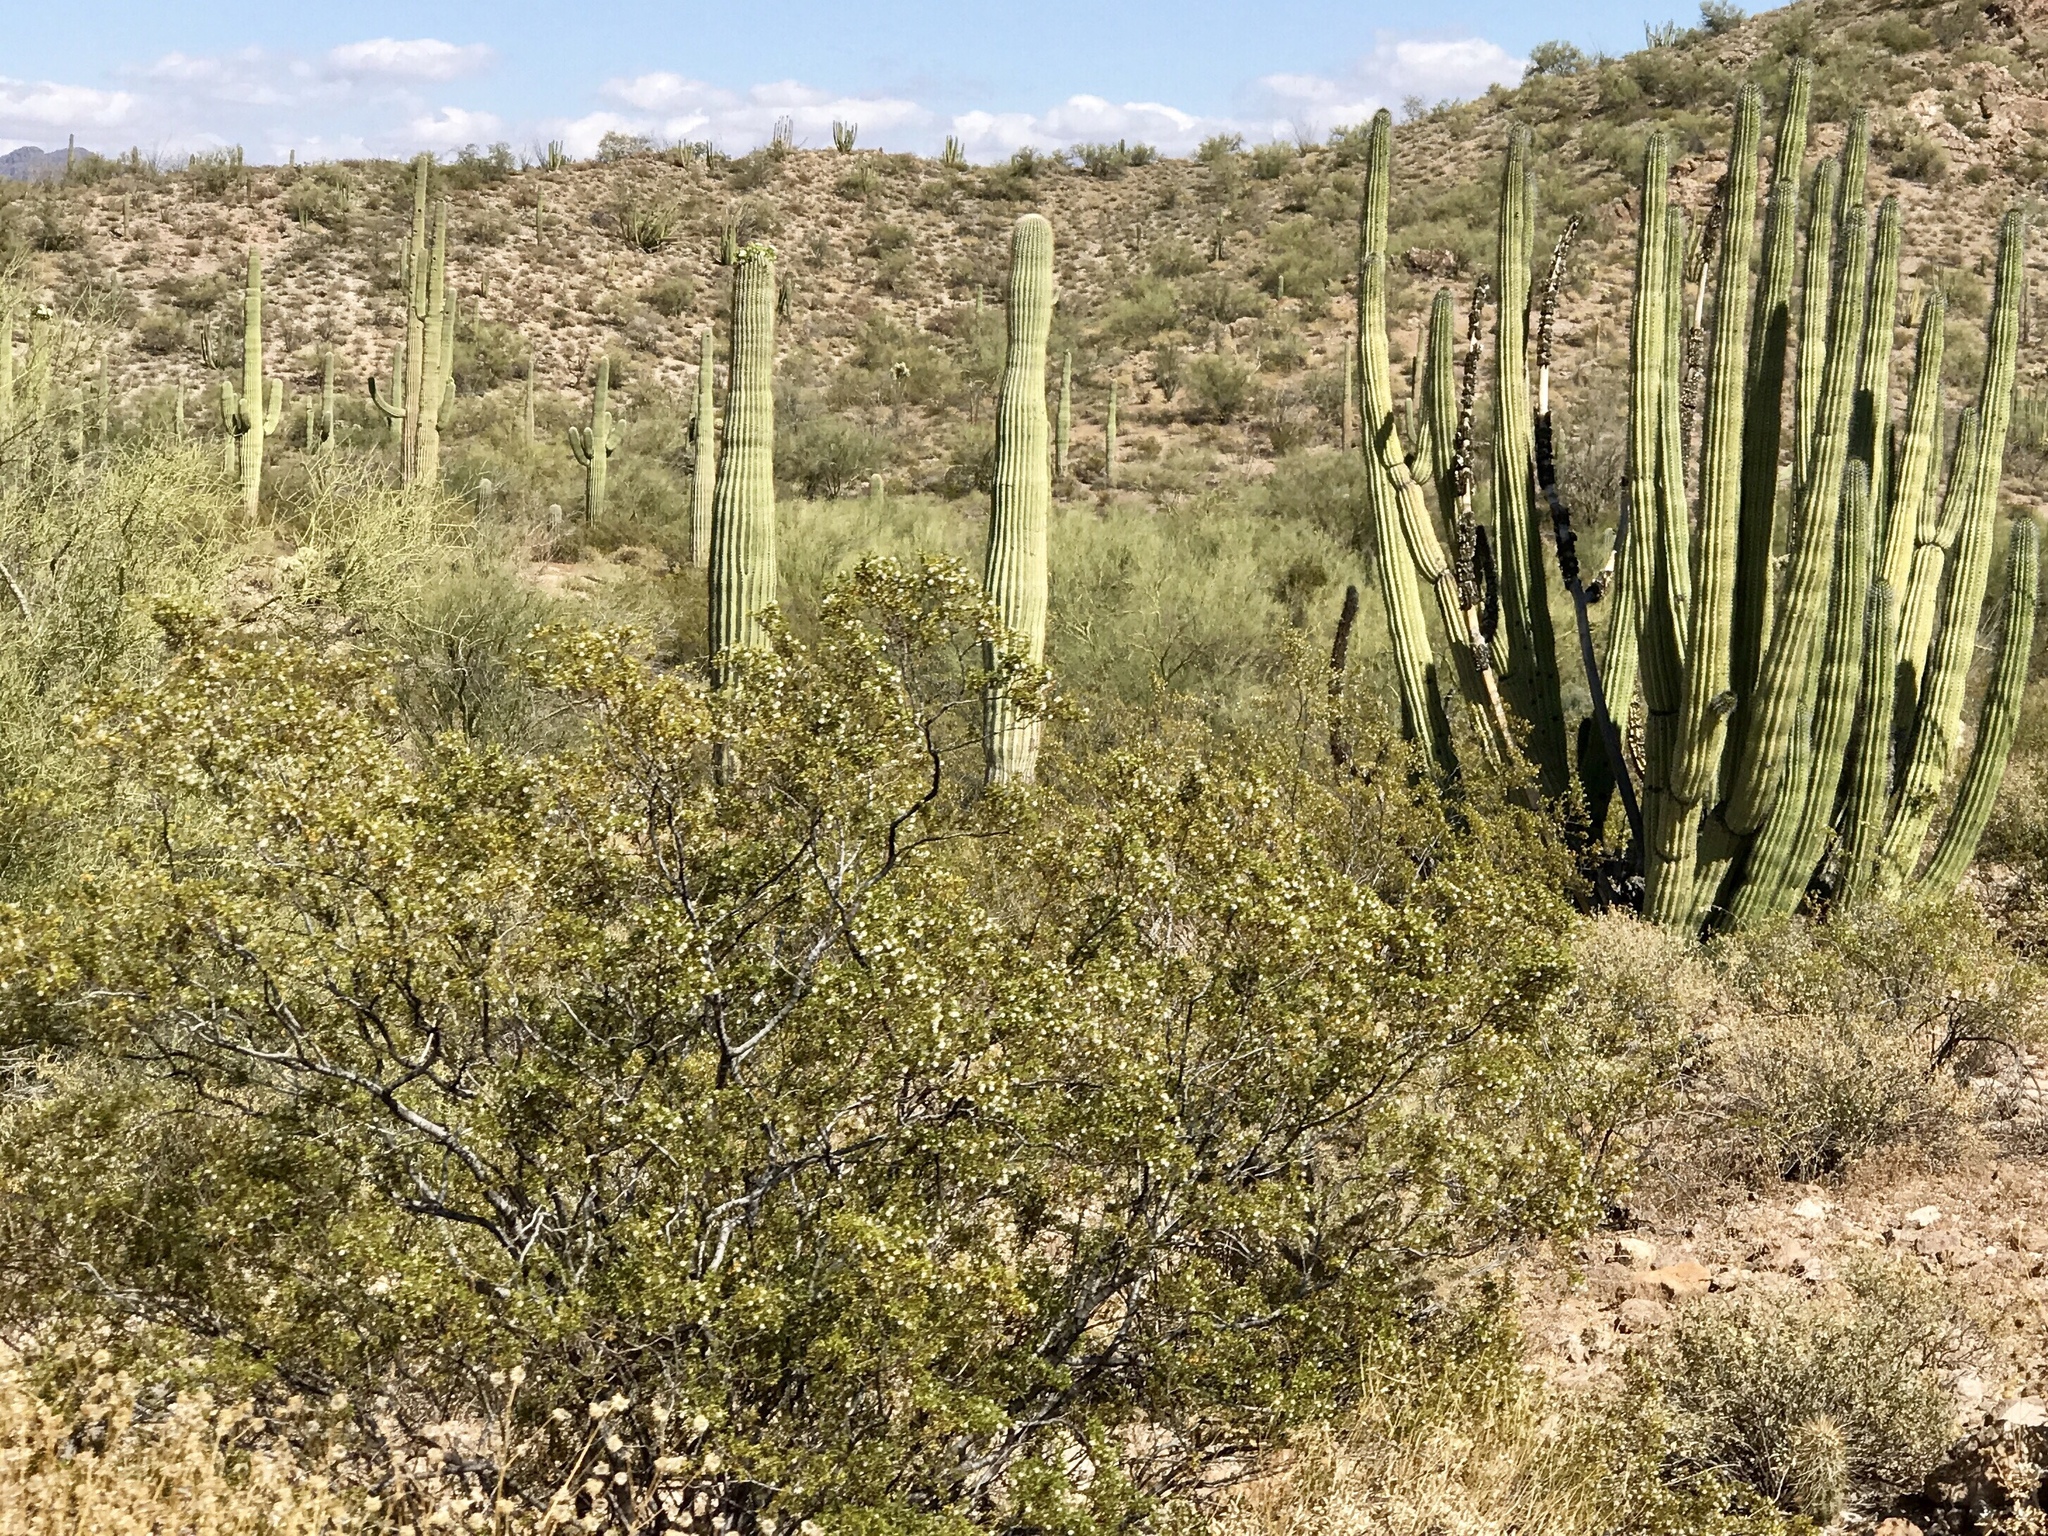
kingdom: Plantae
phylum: Tracheophyta
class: Magnoliopsida
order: Zygophyllales
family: Zygophyllaceae
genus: Larrea
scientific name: Larrea tridentata
